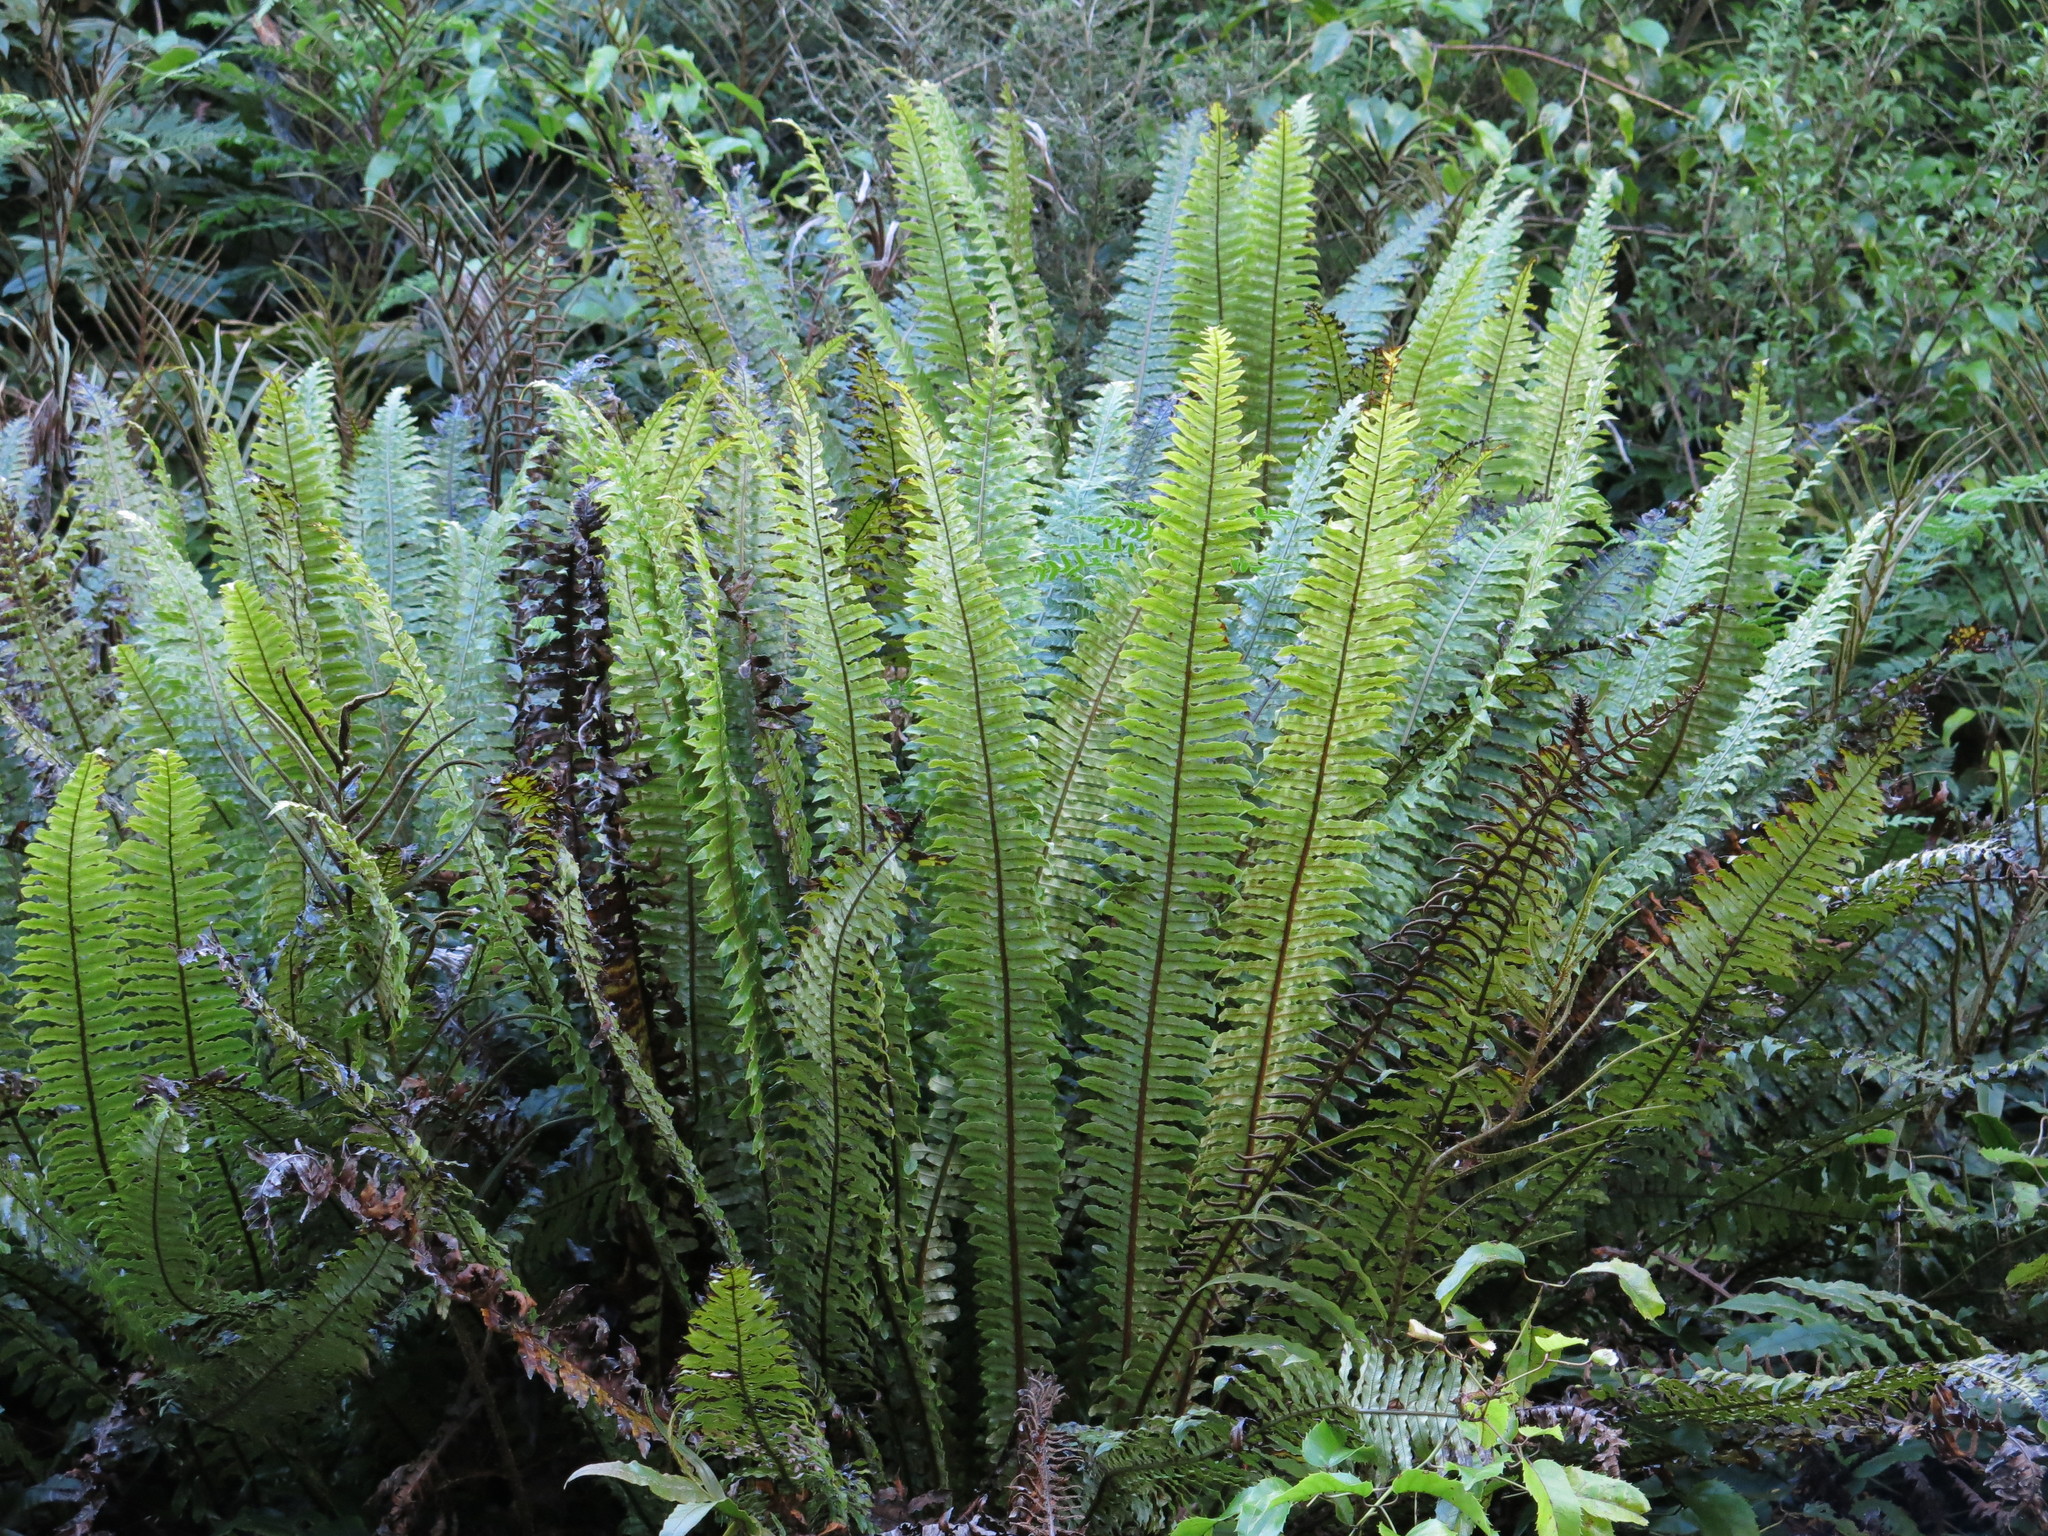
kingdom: Plantae
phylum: Tracheophyta
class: Polypodiopsida
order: Polypodiales
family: Blechnaceae
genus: Lomaria
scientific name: Lomaria discolor
